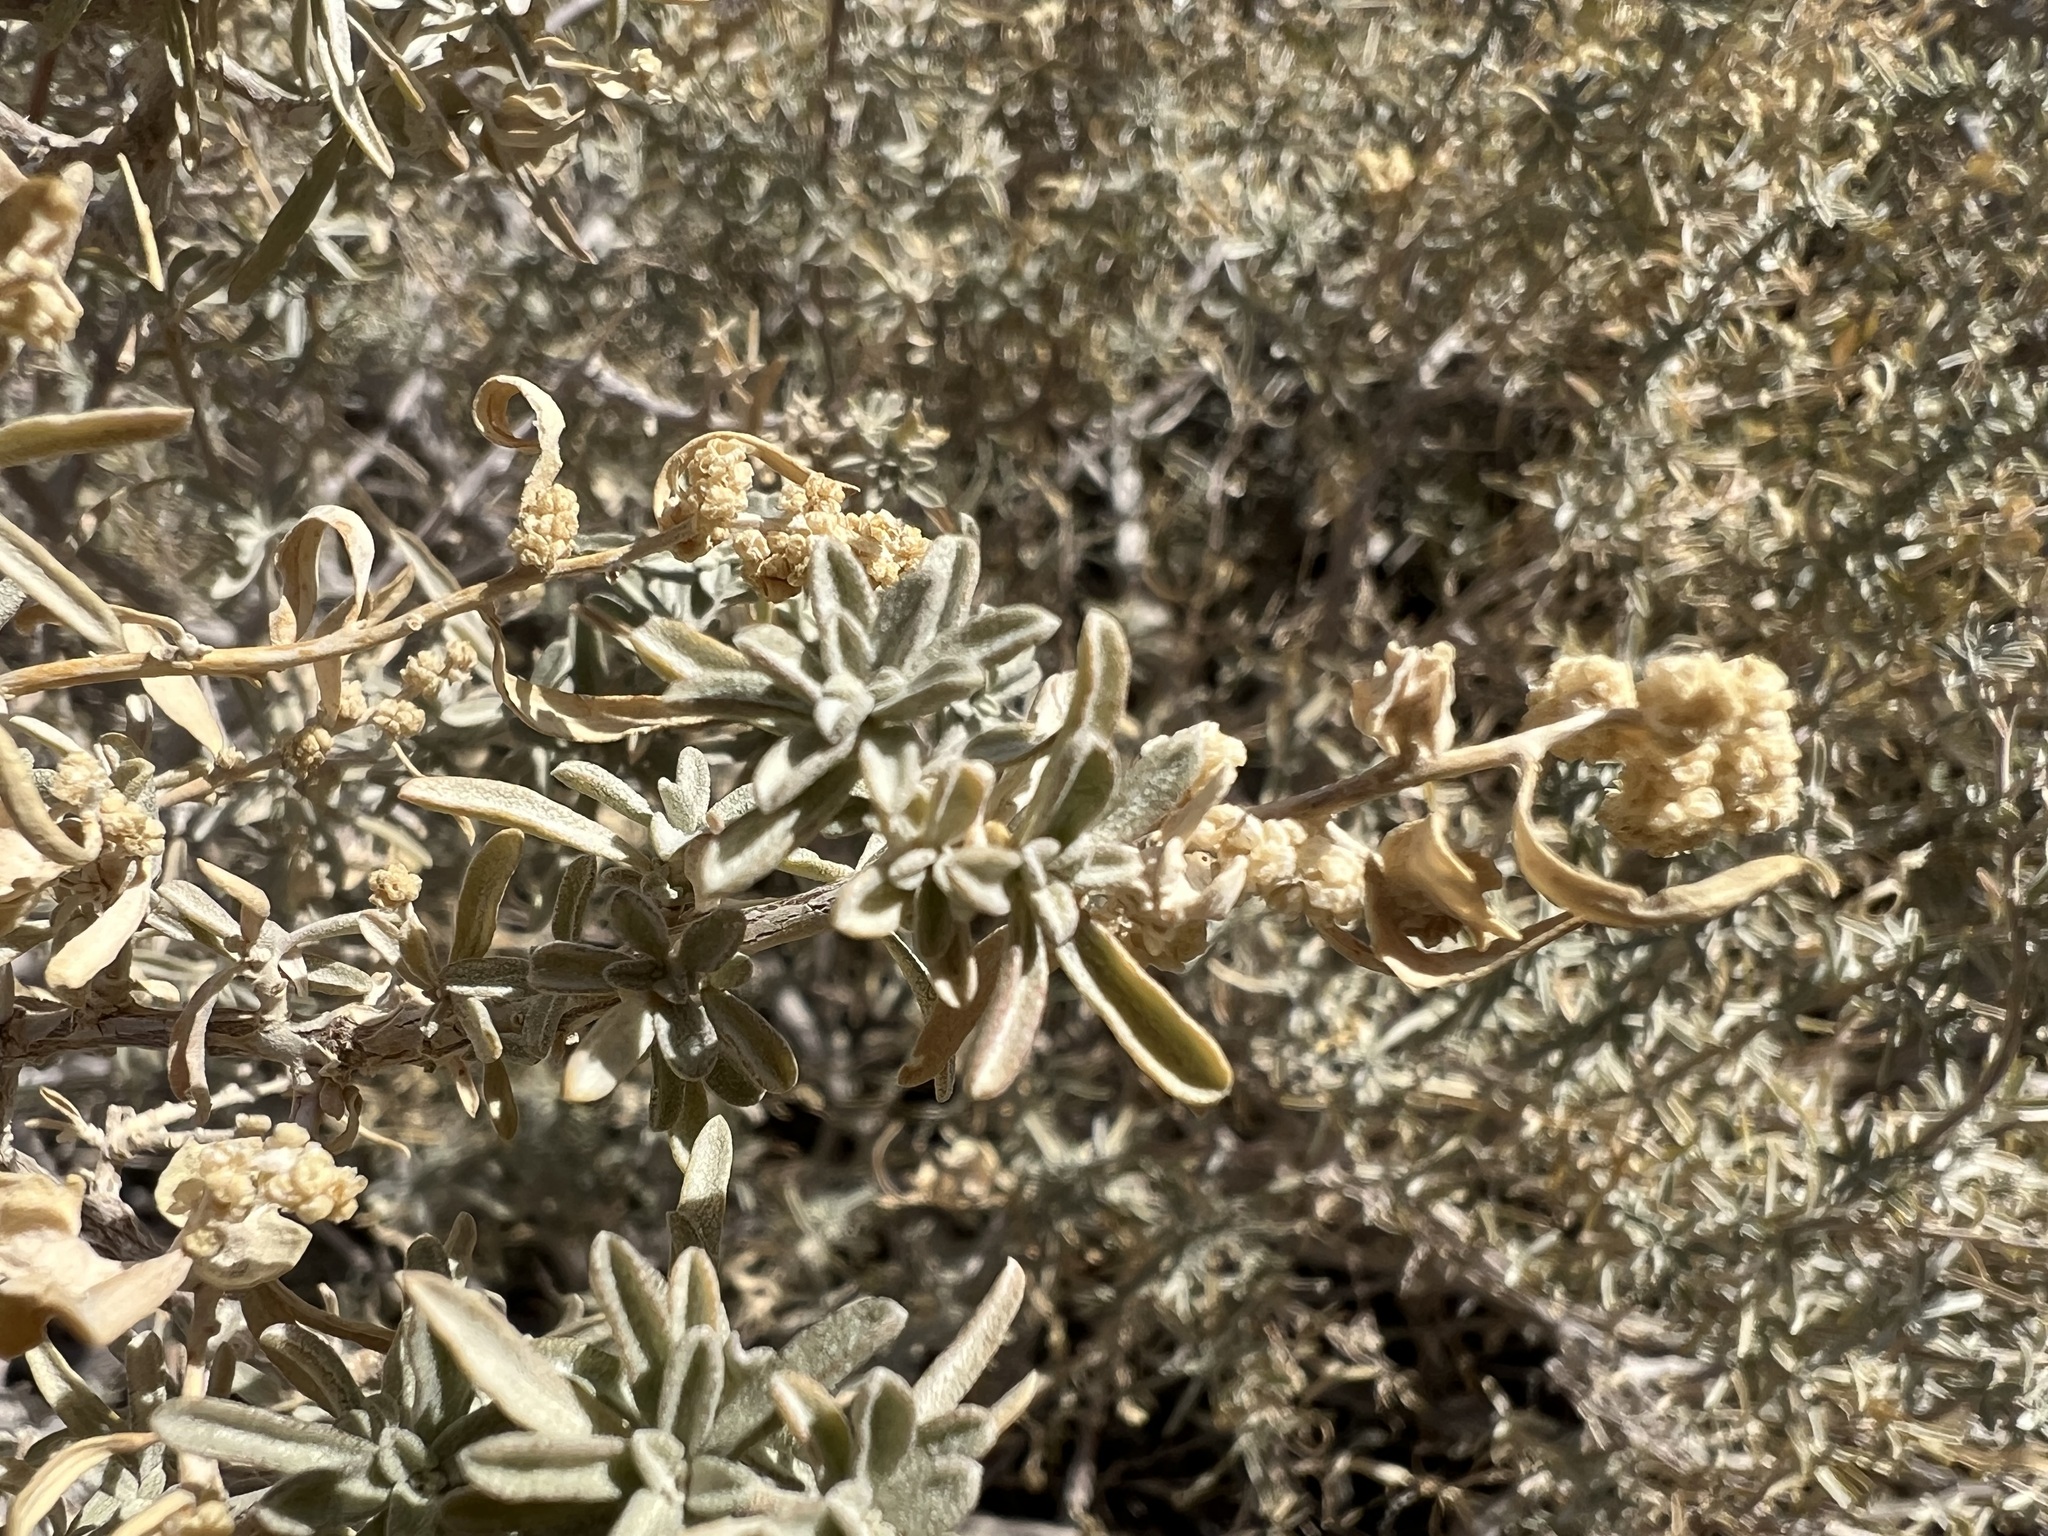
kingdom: Plantae
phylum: Tracheophyta
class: Magnoliopsida
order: Caryophyllales
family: Amaranthaceae
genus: Atriplex
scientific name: Atriplex canescens
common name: Four-wing saltbush
